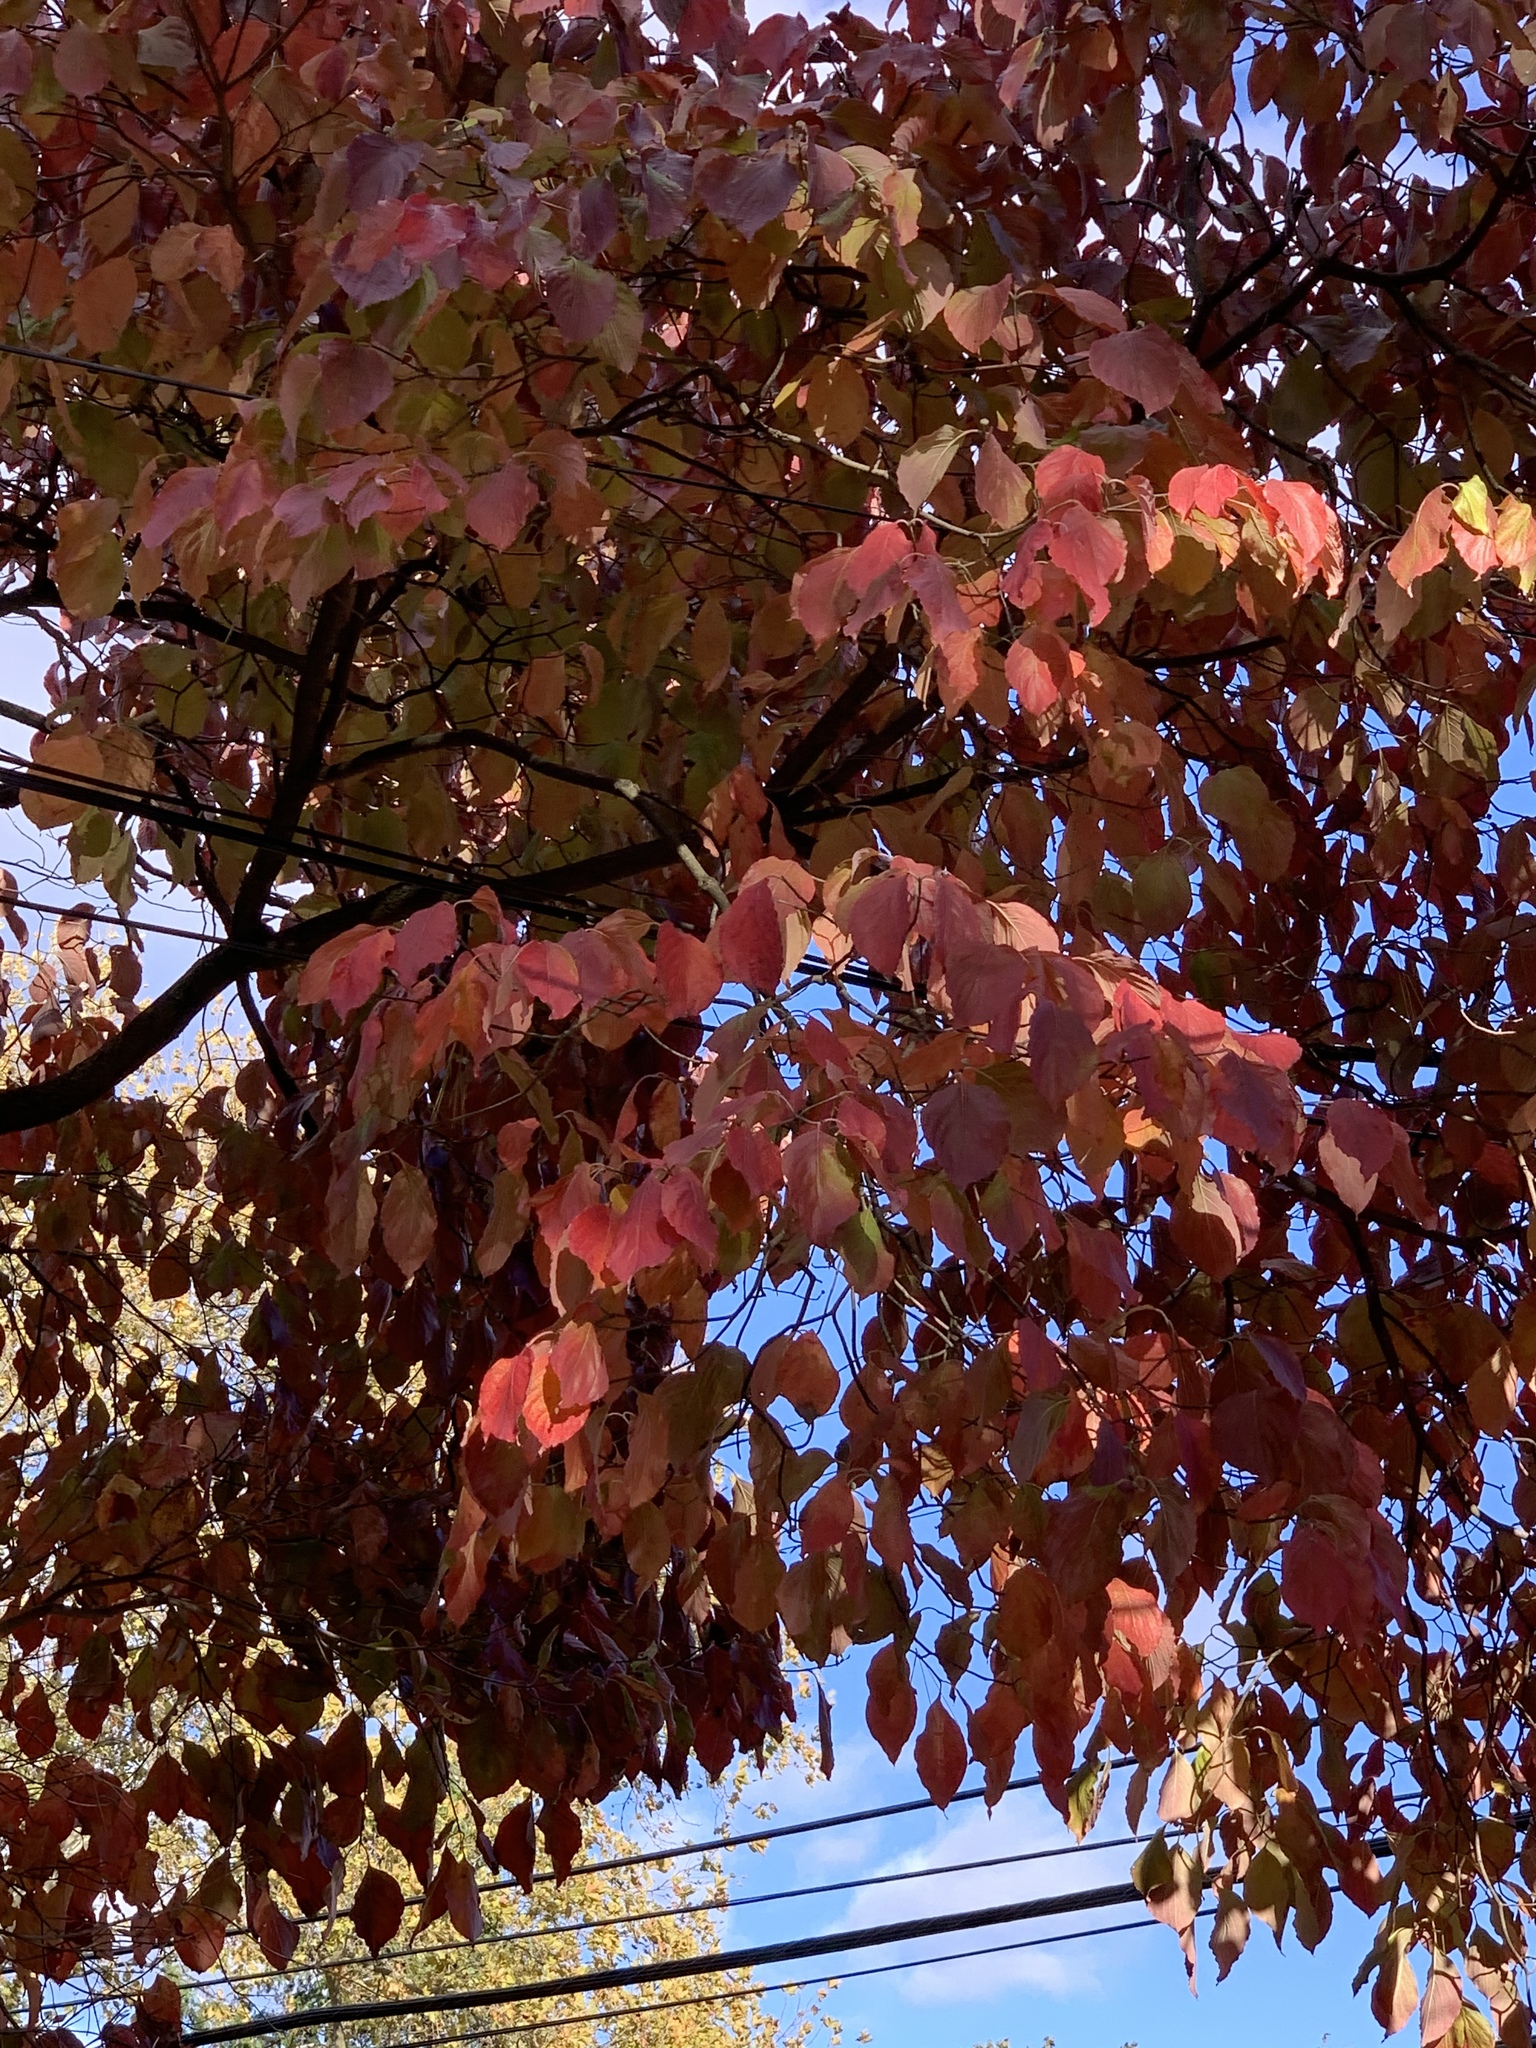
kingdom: Plantae
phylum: Tracheophyta
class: Magnoliopsida
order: Cornales
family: Cornaceae
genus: Cornus
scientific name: Cornus florida
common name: Flowering dogwood
